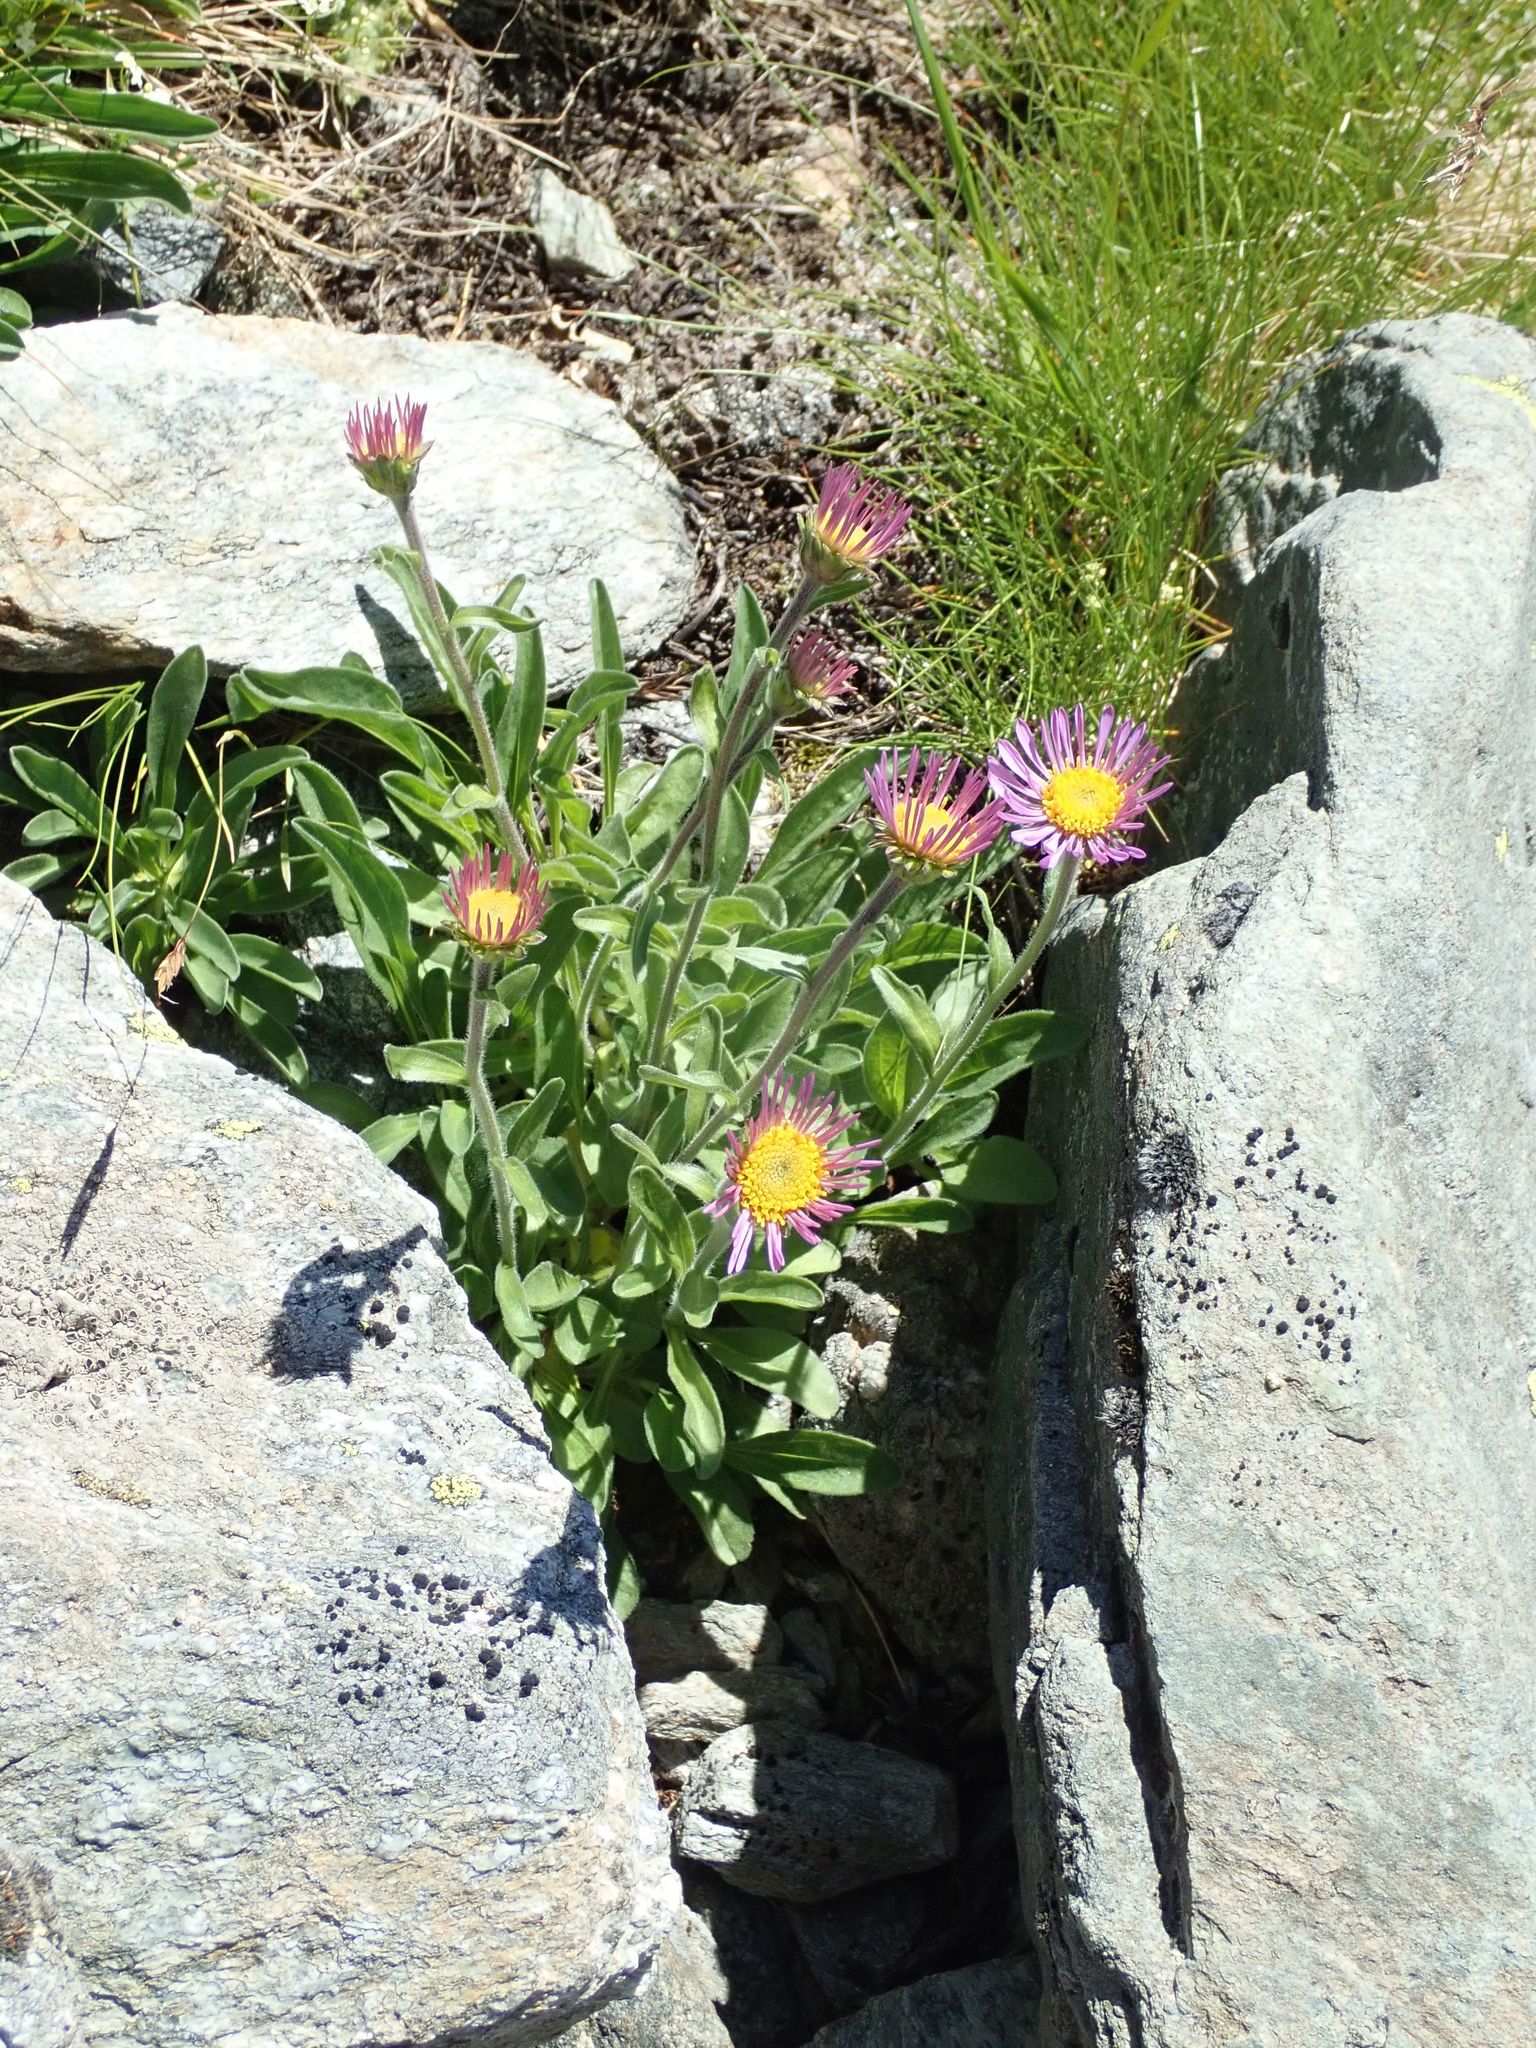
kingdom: Plantae
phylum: Tracheophyta
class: Magnoliopsida
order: Asterales
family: Asteraceae
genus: Aster
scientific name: Aster alpinus
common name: Alpine aster
